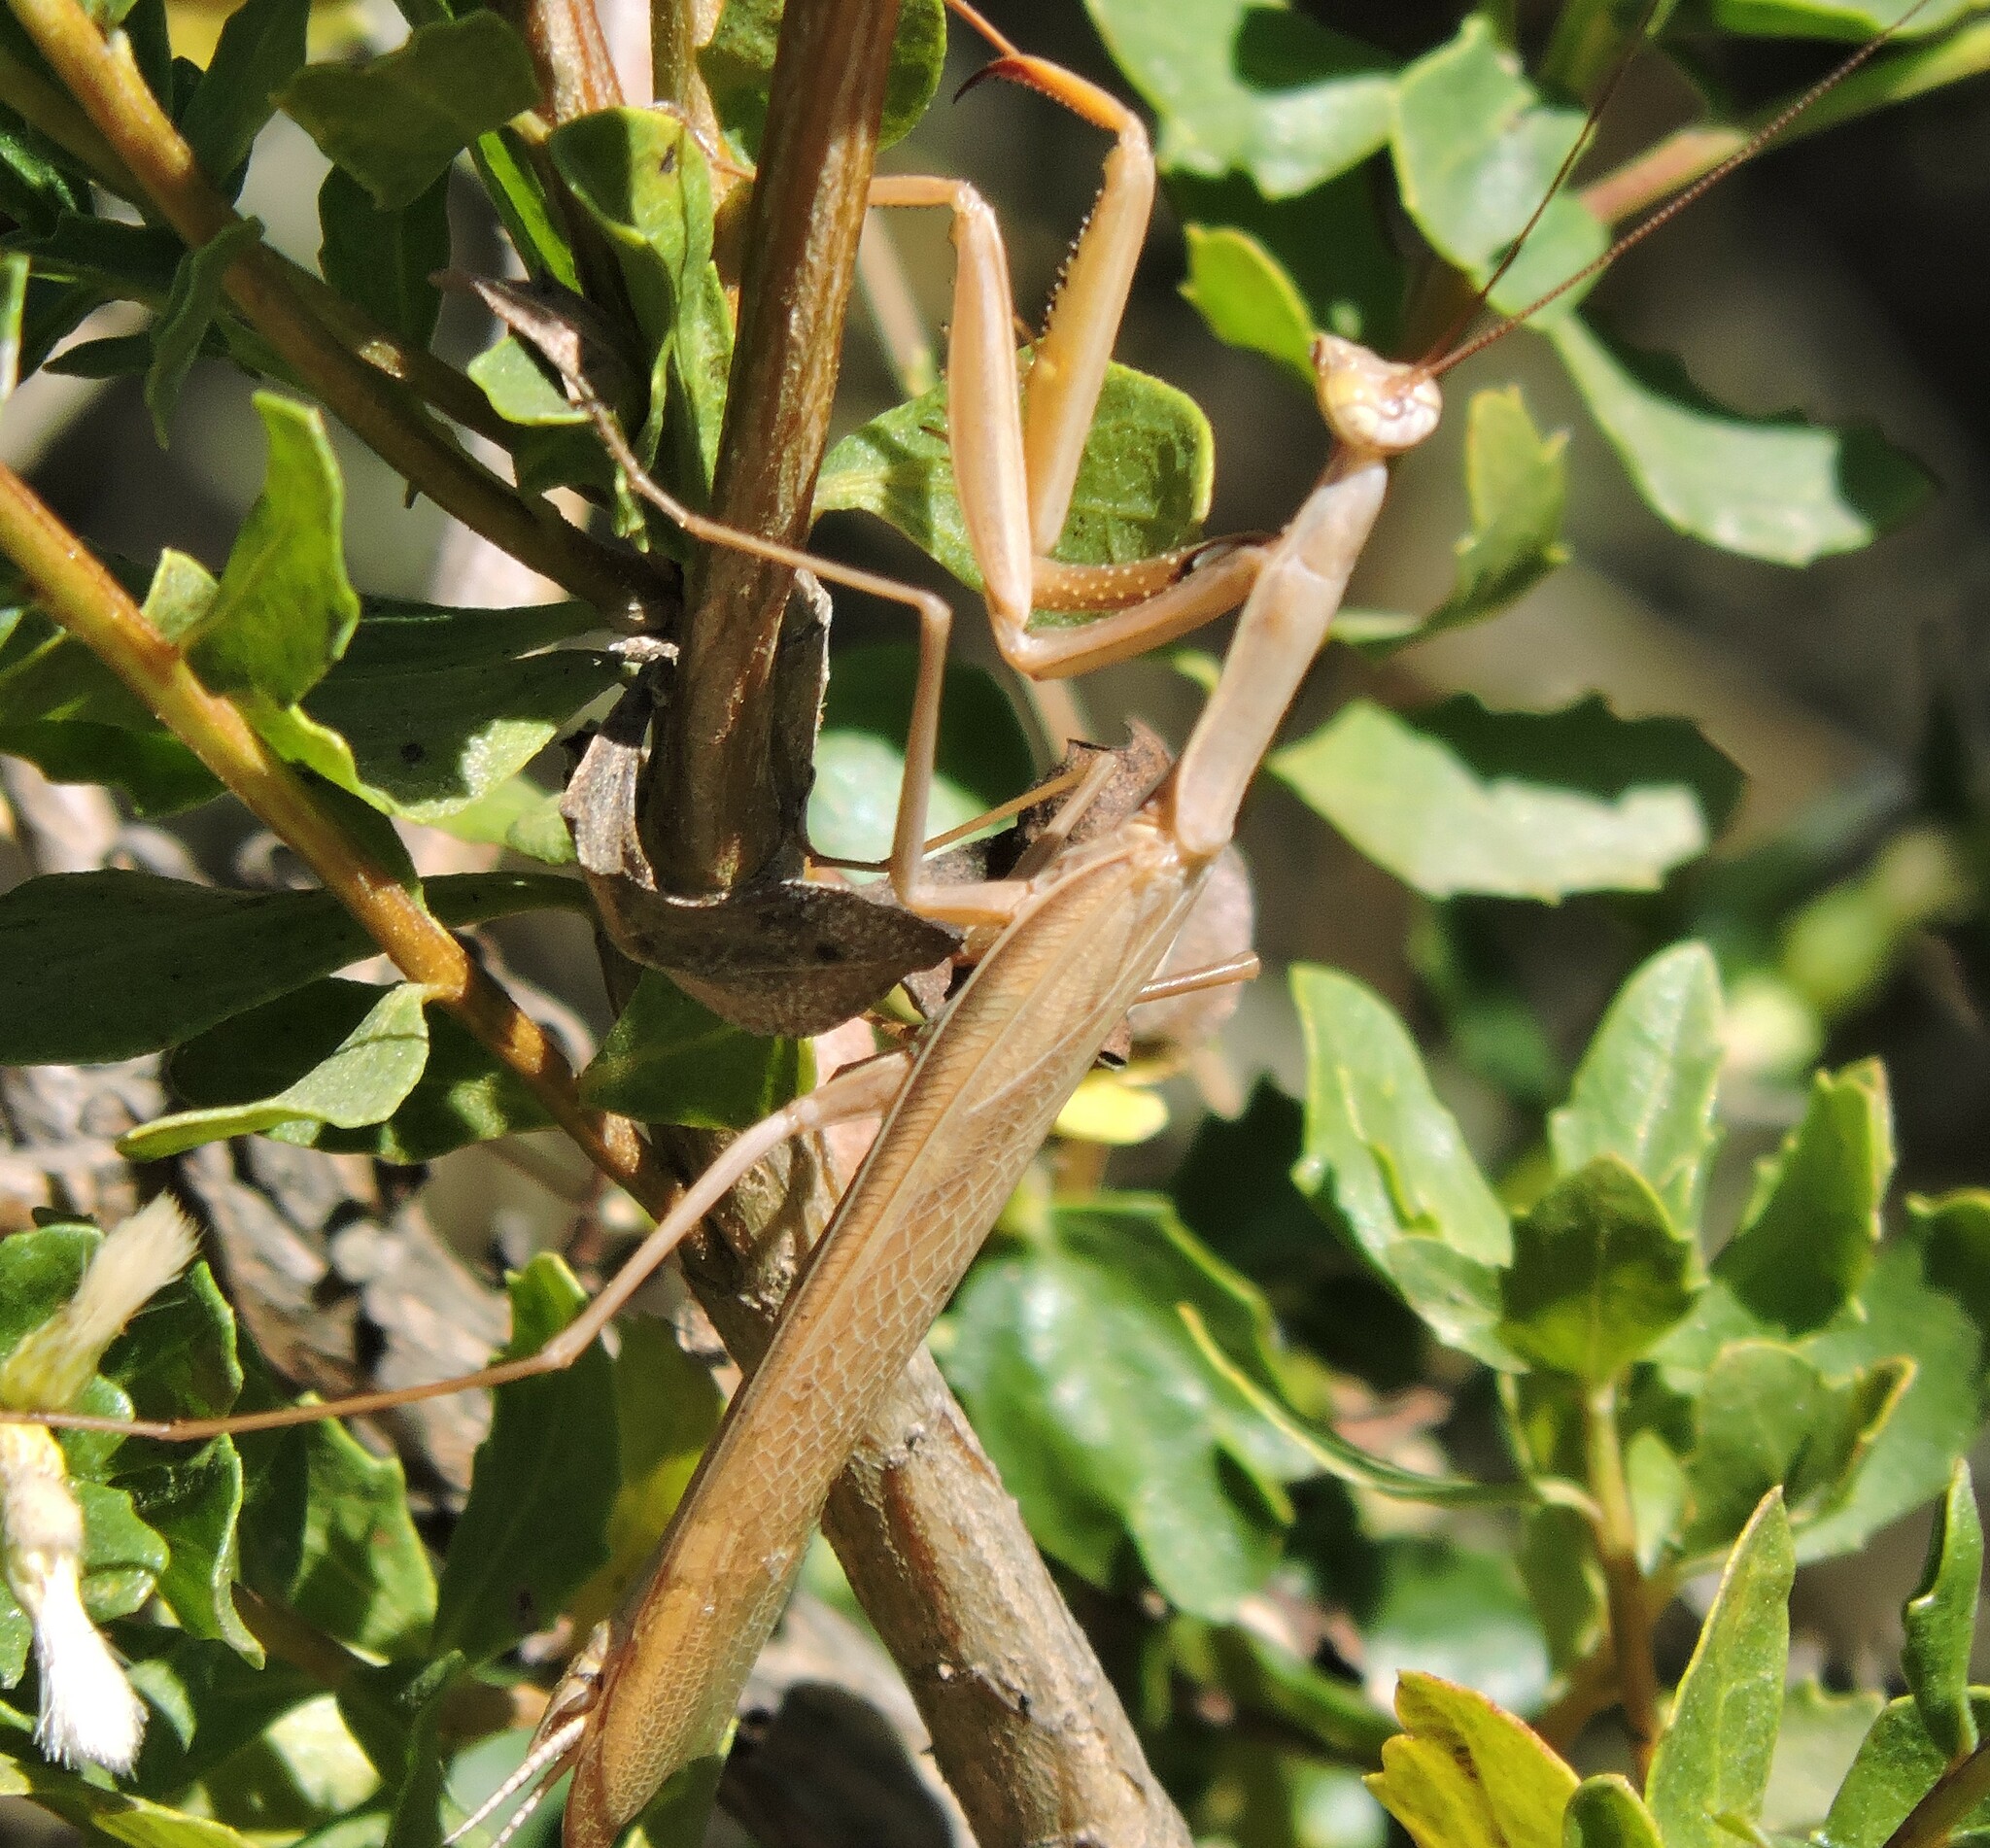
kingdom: Animalia
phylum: Arthropoda
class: Insecta
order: Mantodea
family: Mantidae
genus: Mantis
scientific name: Mantis religiosa
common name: Praying mantis
